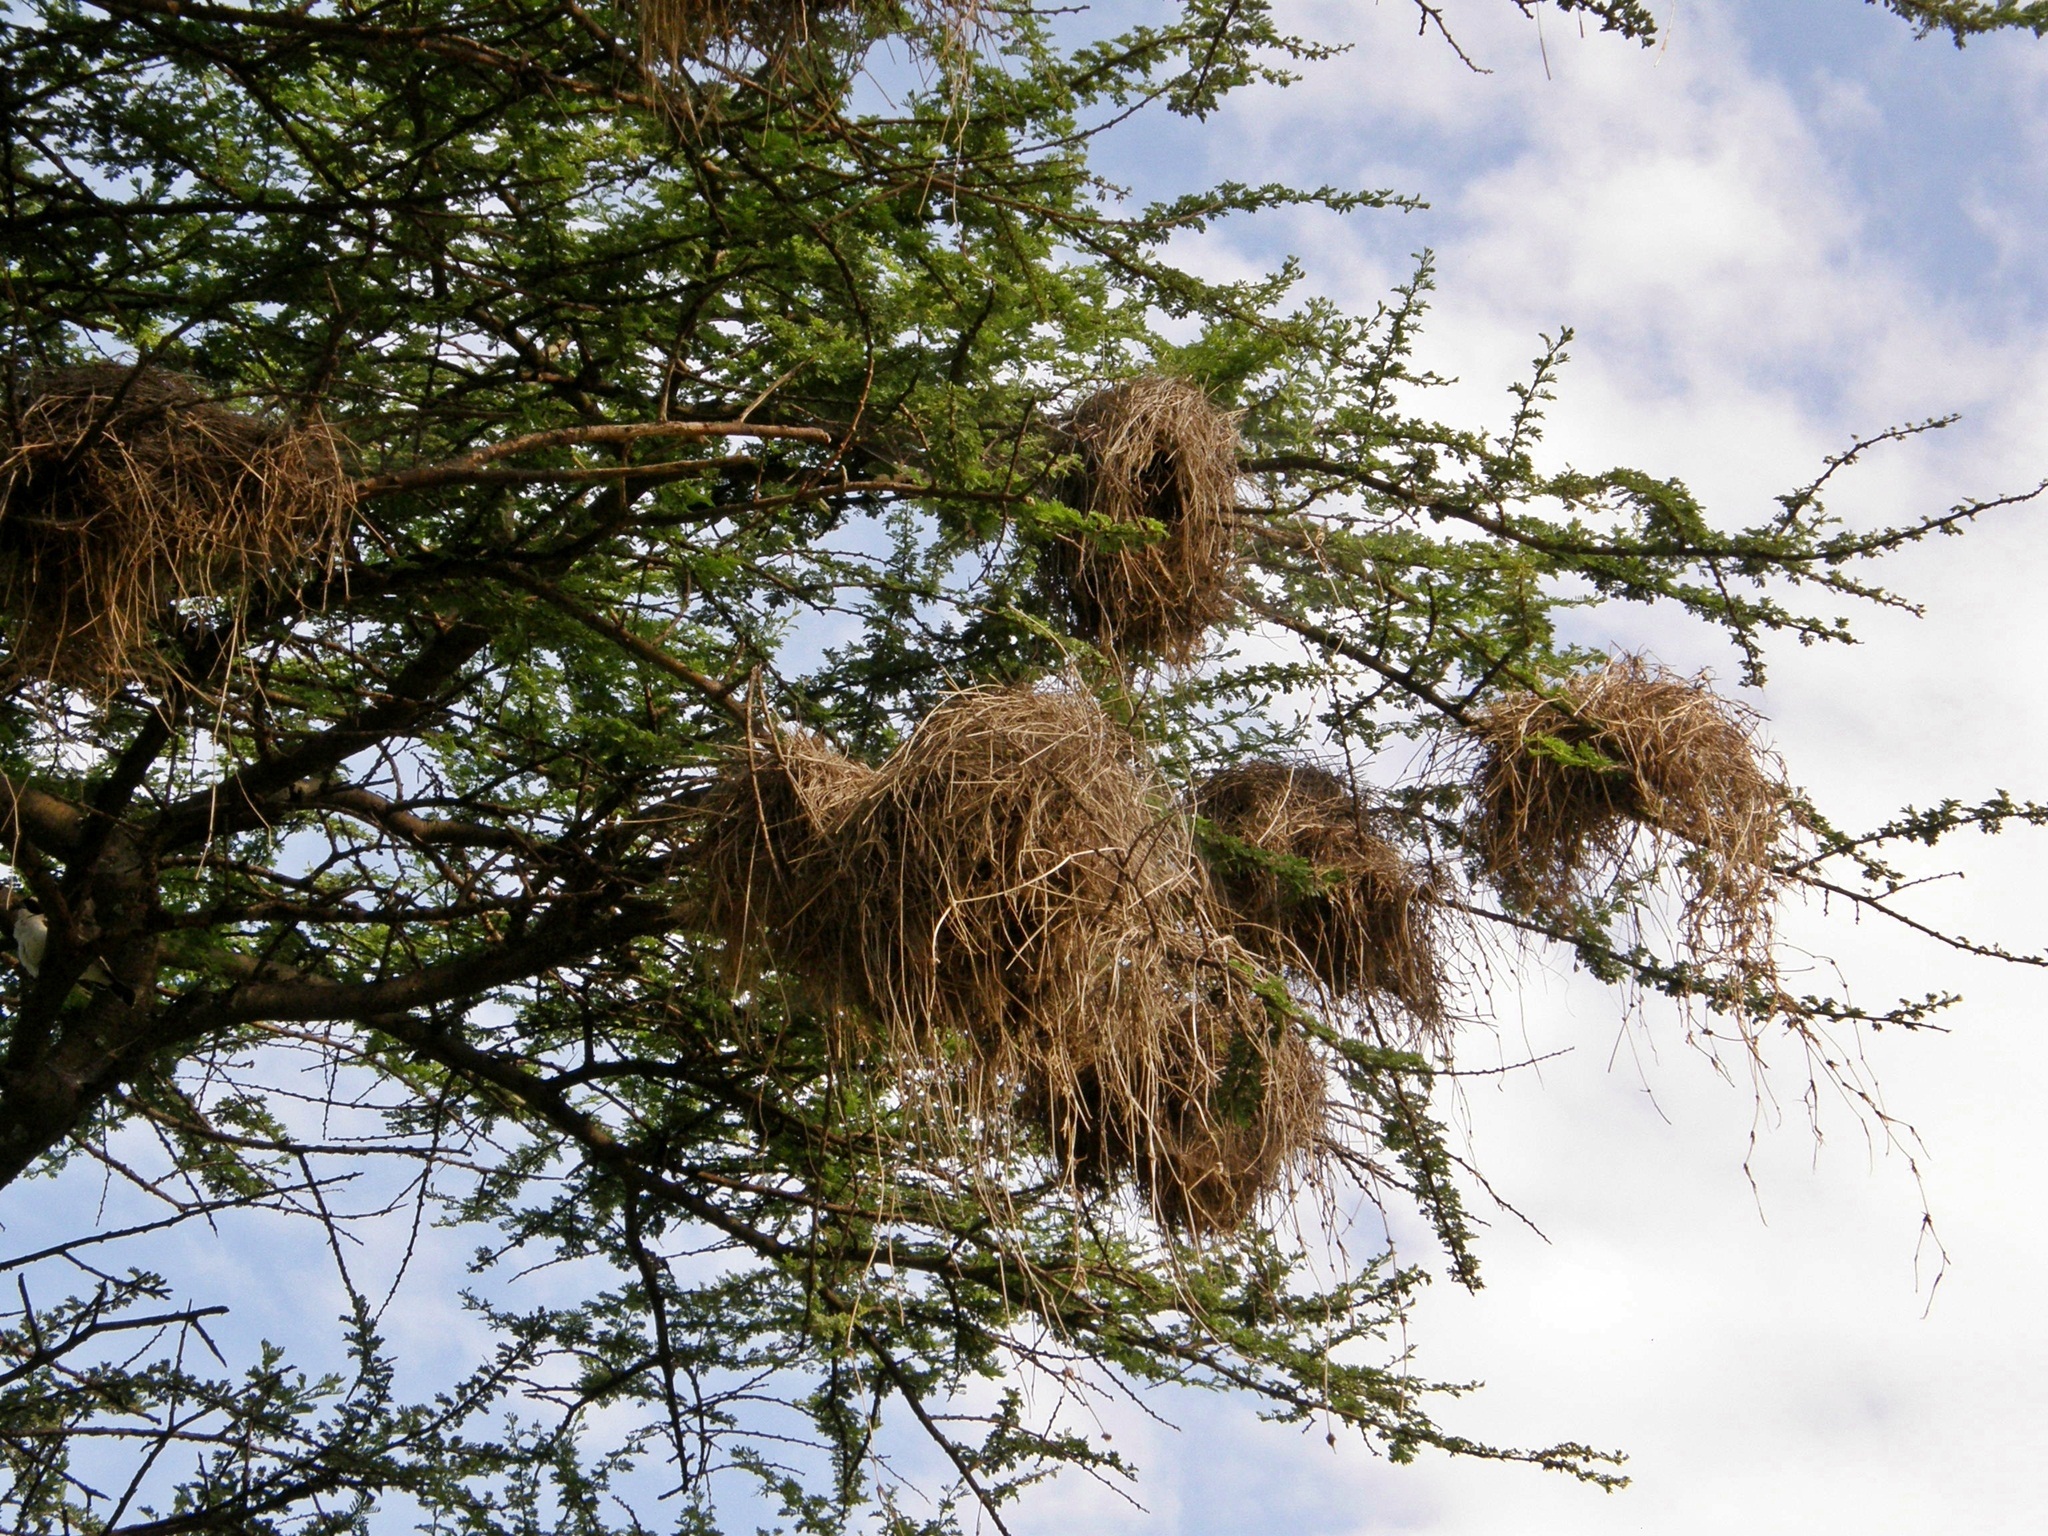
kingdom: Animalia
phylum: Chordata
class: Aves
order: Passeriformes
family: Passeridae
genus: Plocepasser
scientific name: Plocepasser mahali
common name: White-browed sparrow-weaver
